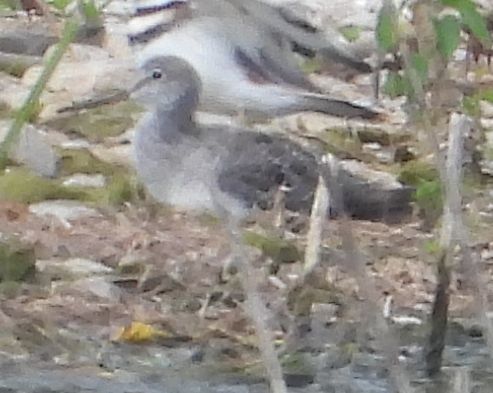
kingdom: Animalia
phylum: Chordata
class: Aves
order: Charadriiformes
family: Scolopacidae
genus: Tringa
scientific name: Tringa melanoleuca
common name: Greater yellowlegs
